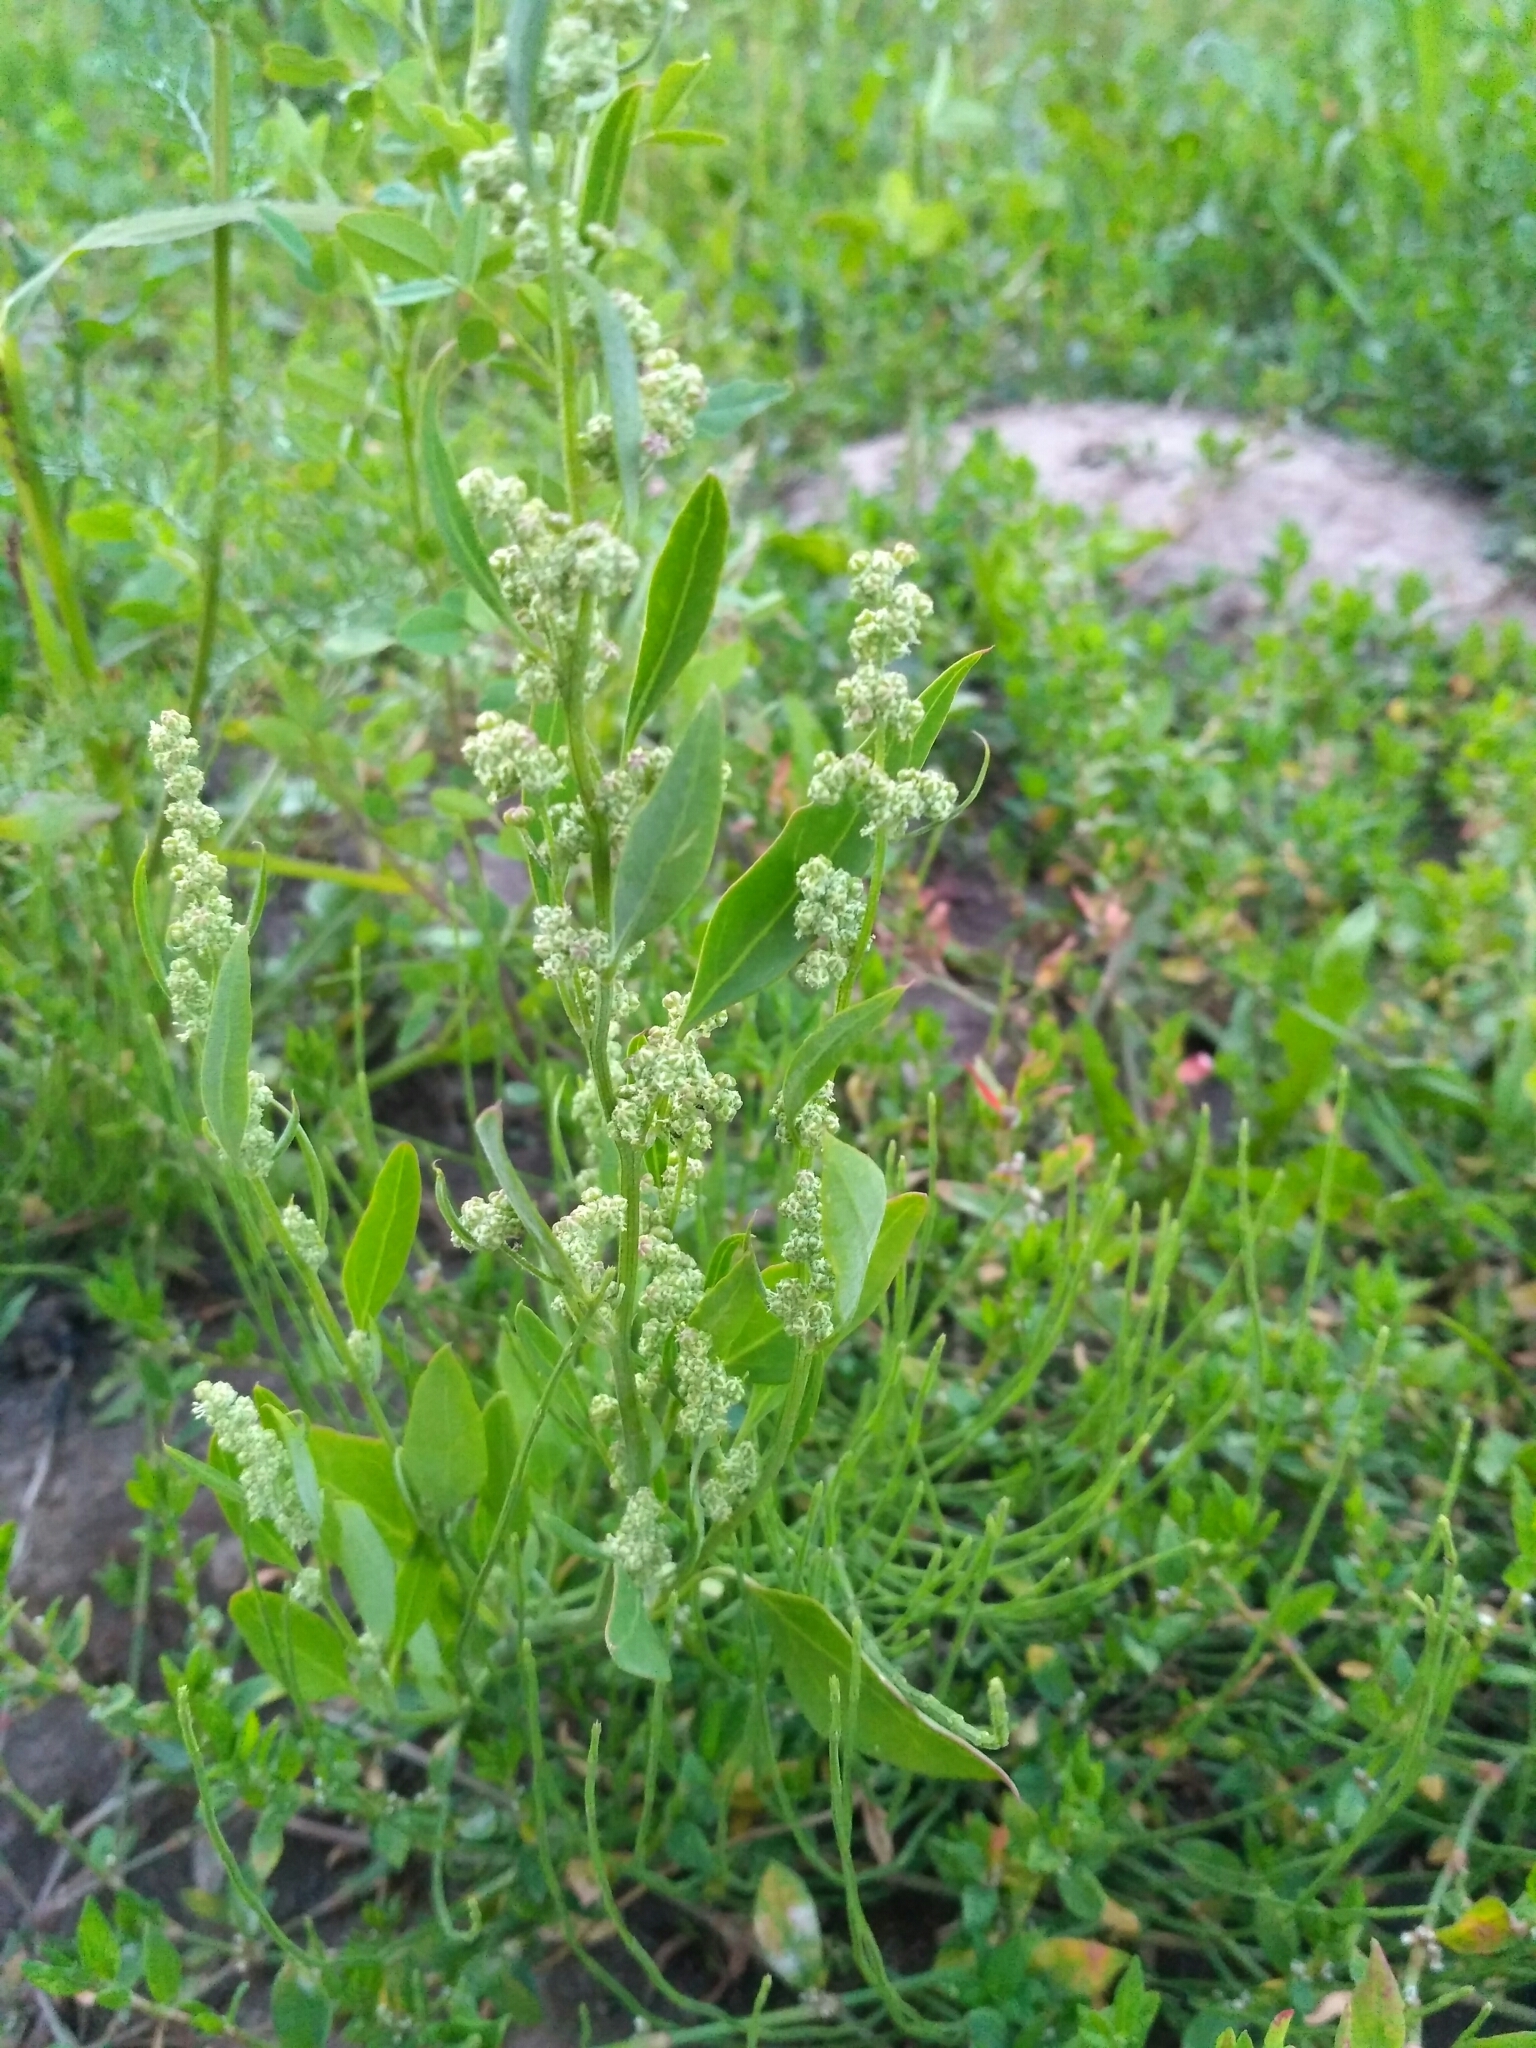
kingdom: Plantae
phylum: Tracheophyta
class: Magnoliopsida
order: Caryophyllales
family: Amaranthaceae
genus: Chenopodium
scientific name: Chenopodium album
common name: Fat-hen
